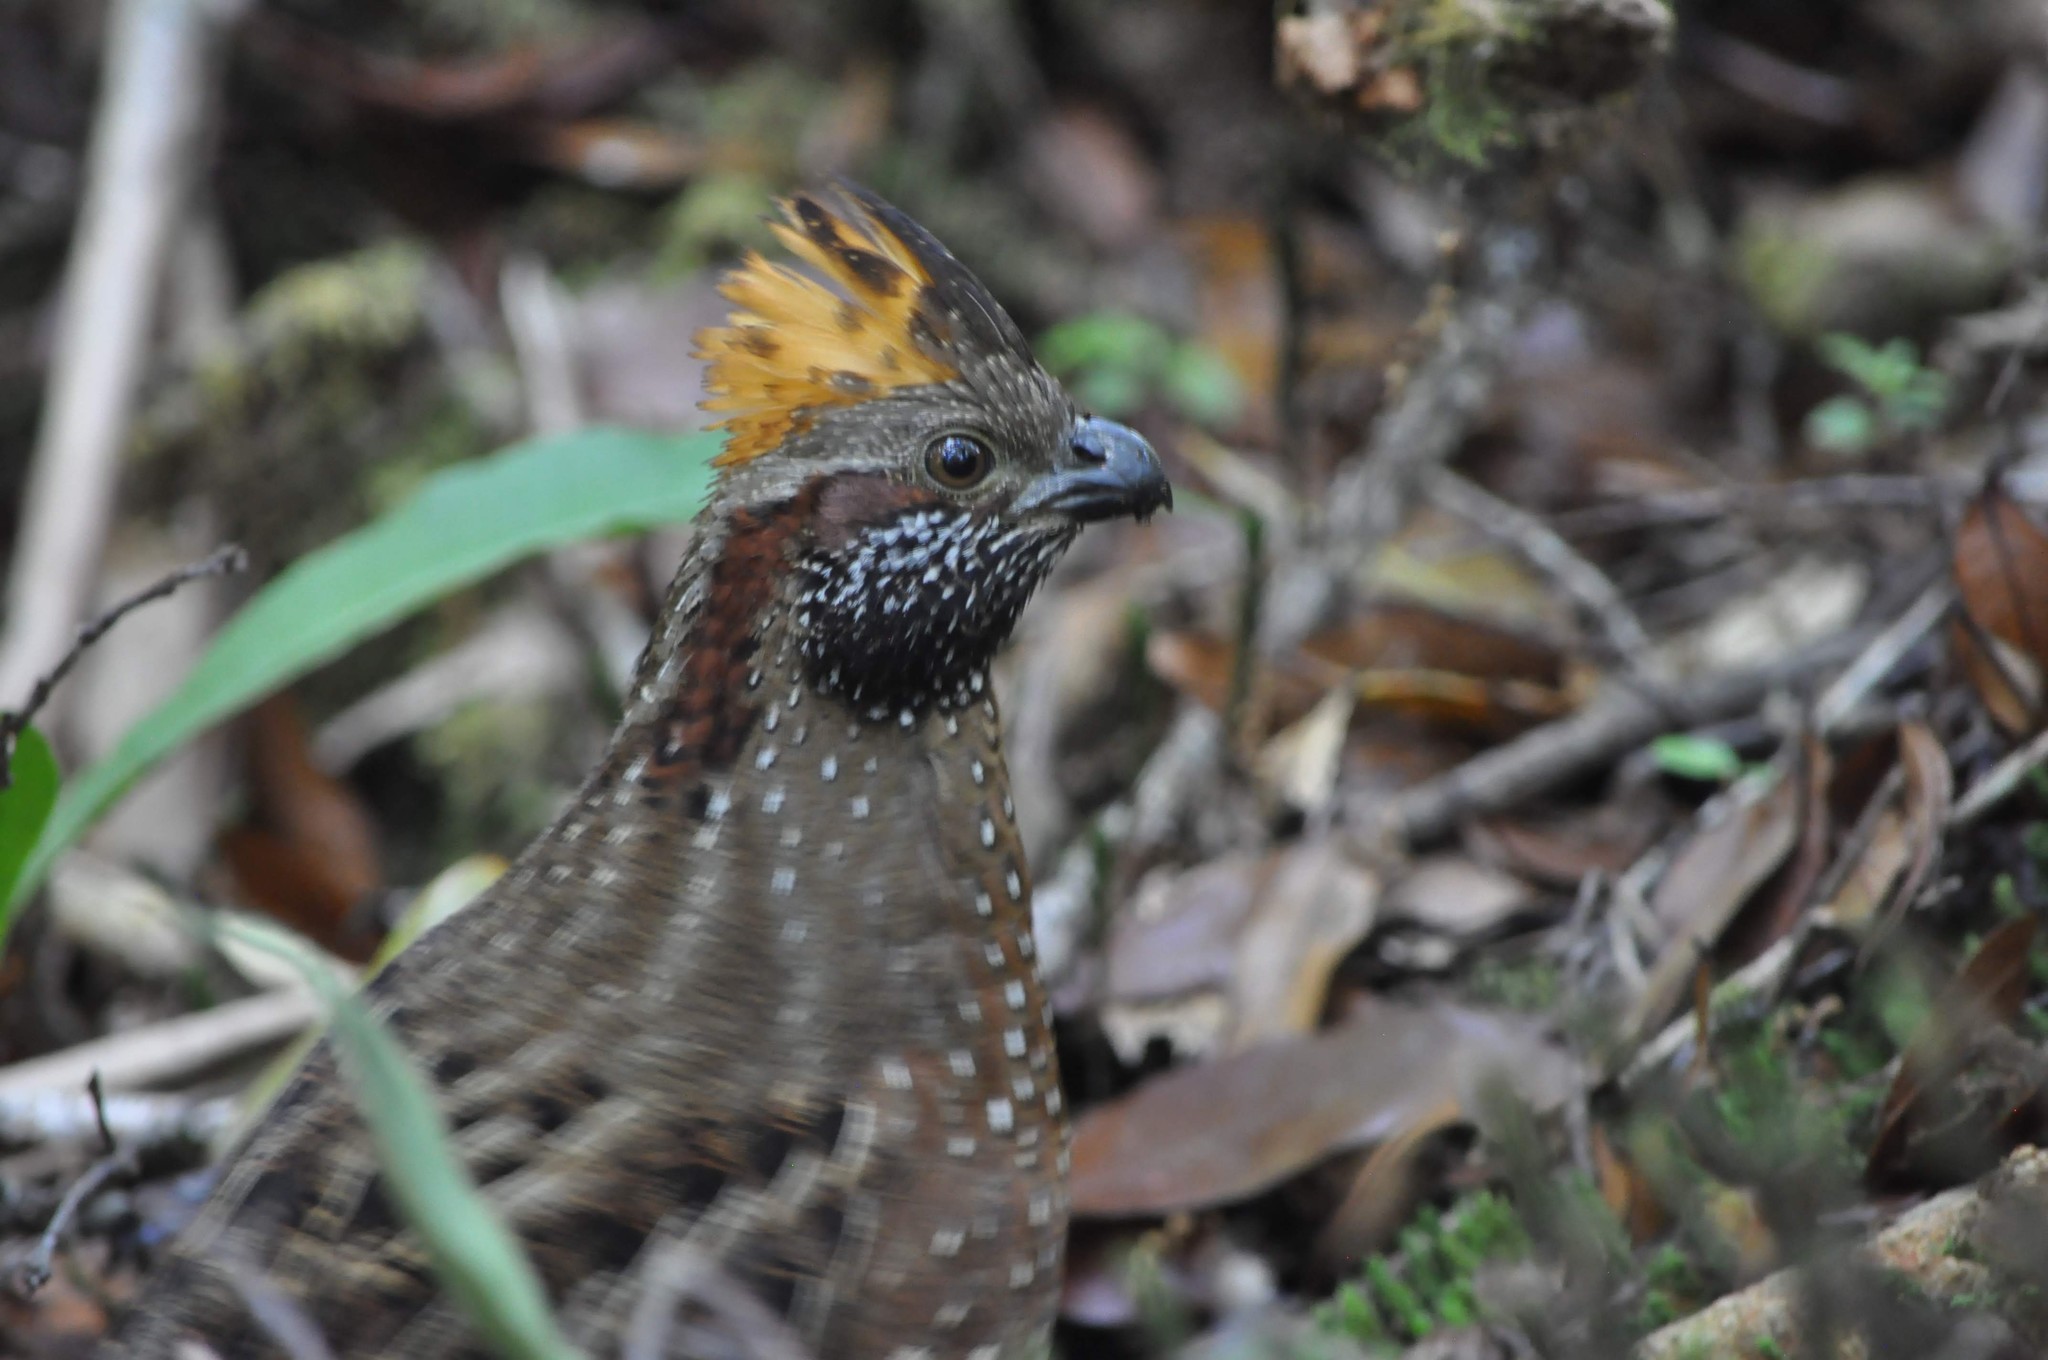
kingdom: Animalia
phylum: Chordata
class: Aves
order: Galliformes
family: Odontophoridae
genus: Odontophorus
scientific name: Odontophorus guttatus
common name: Spotted wood-quail
